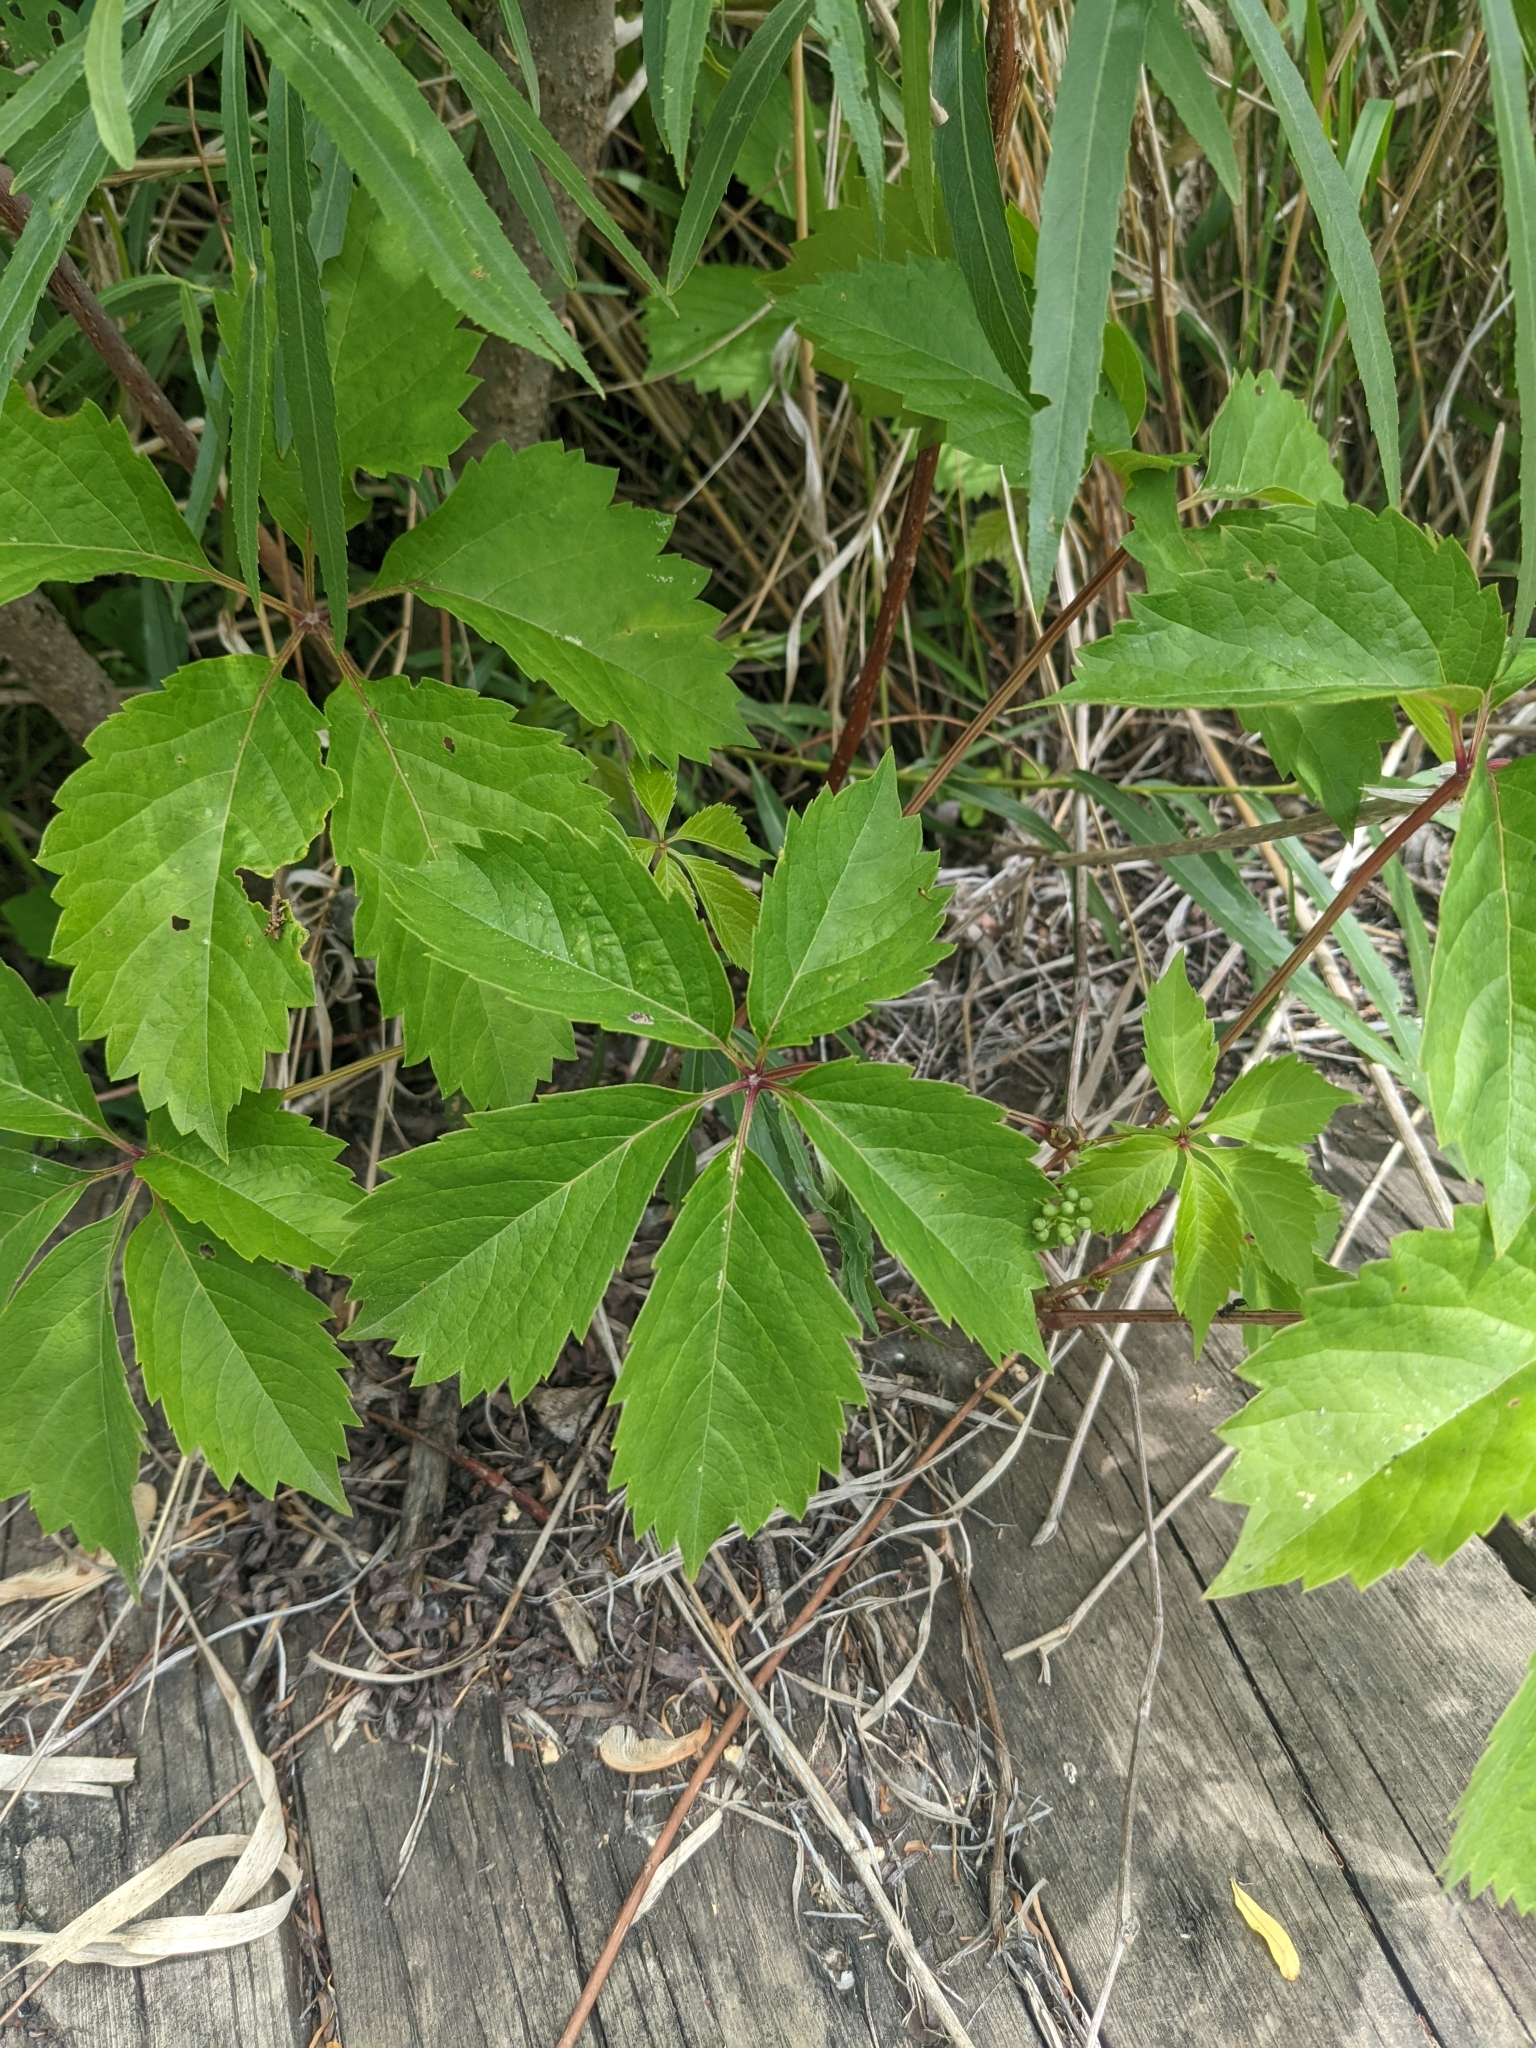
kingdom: Plantae
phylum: Tracheophyta
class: Magnoliopsida
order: Vitales
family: Vitaceae
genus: Parthenocissus
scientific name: Parthenocissus quinquefolia
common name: Virginia-creeper
